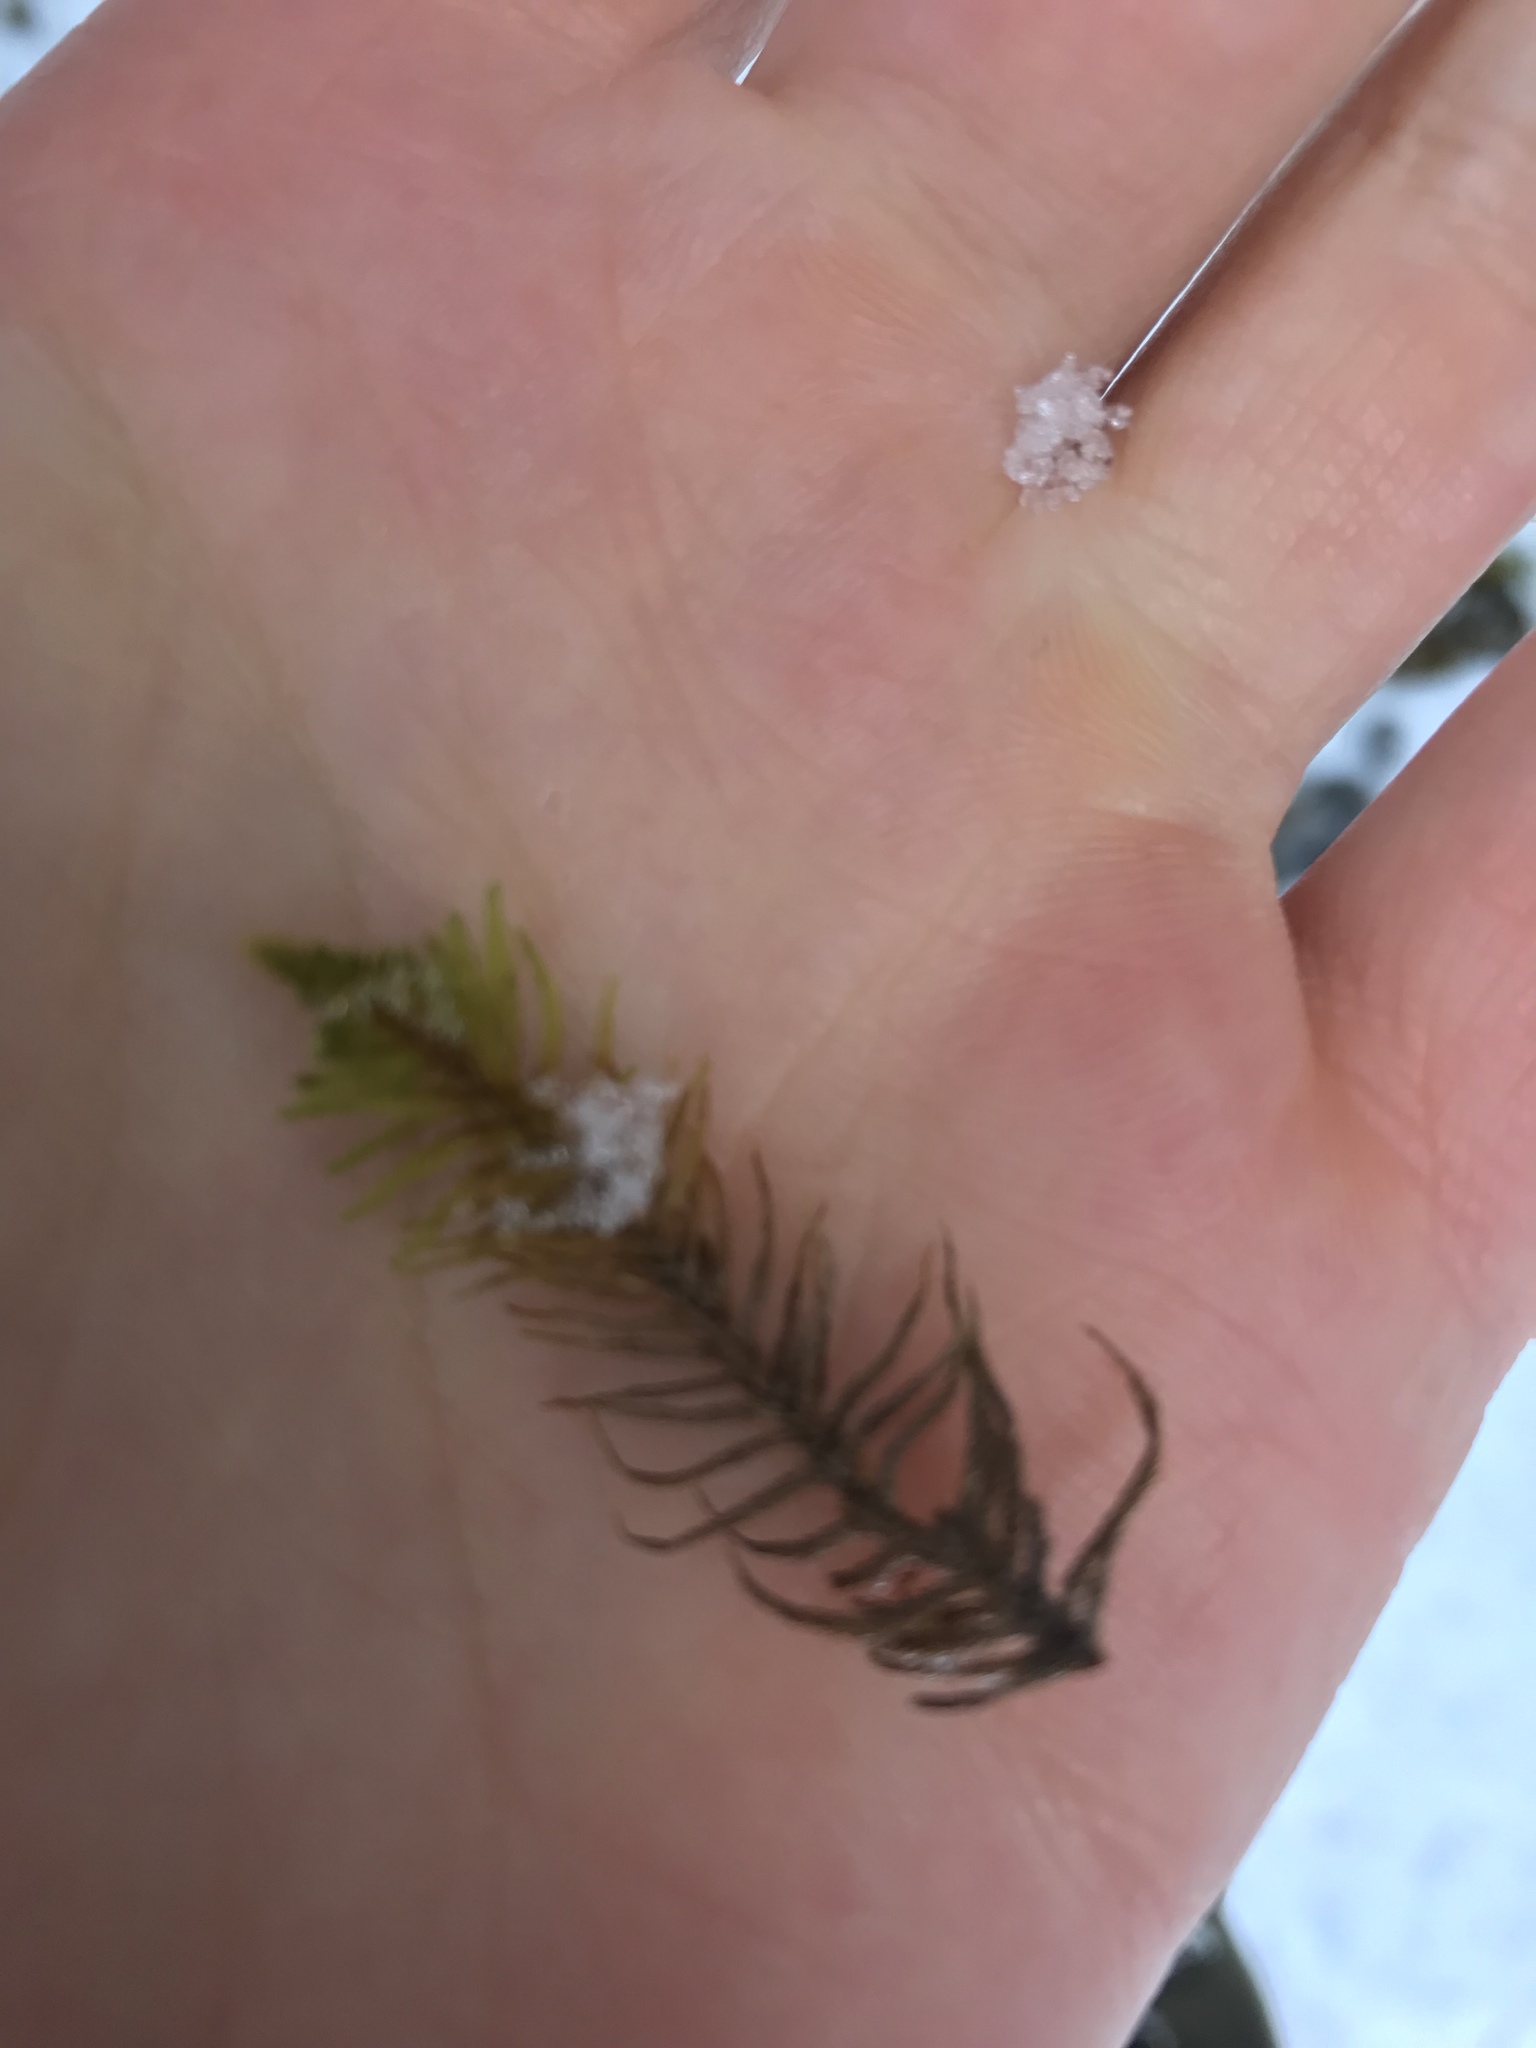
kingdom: Plantae
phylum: Bryophyta
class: Bryopsida
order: Hypnales
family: Thuidiaceae
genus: Abietinella
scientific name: Abietinella abietina
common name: Wiry fern moss
